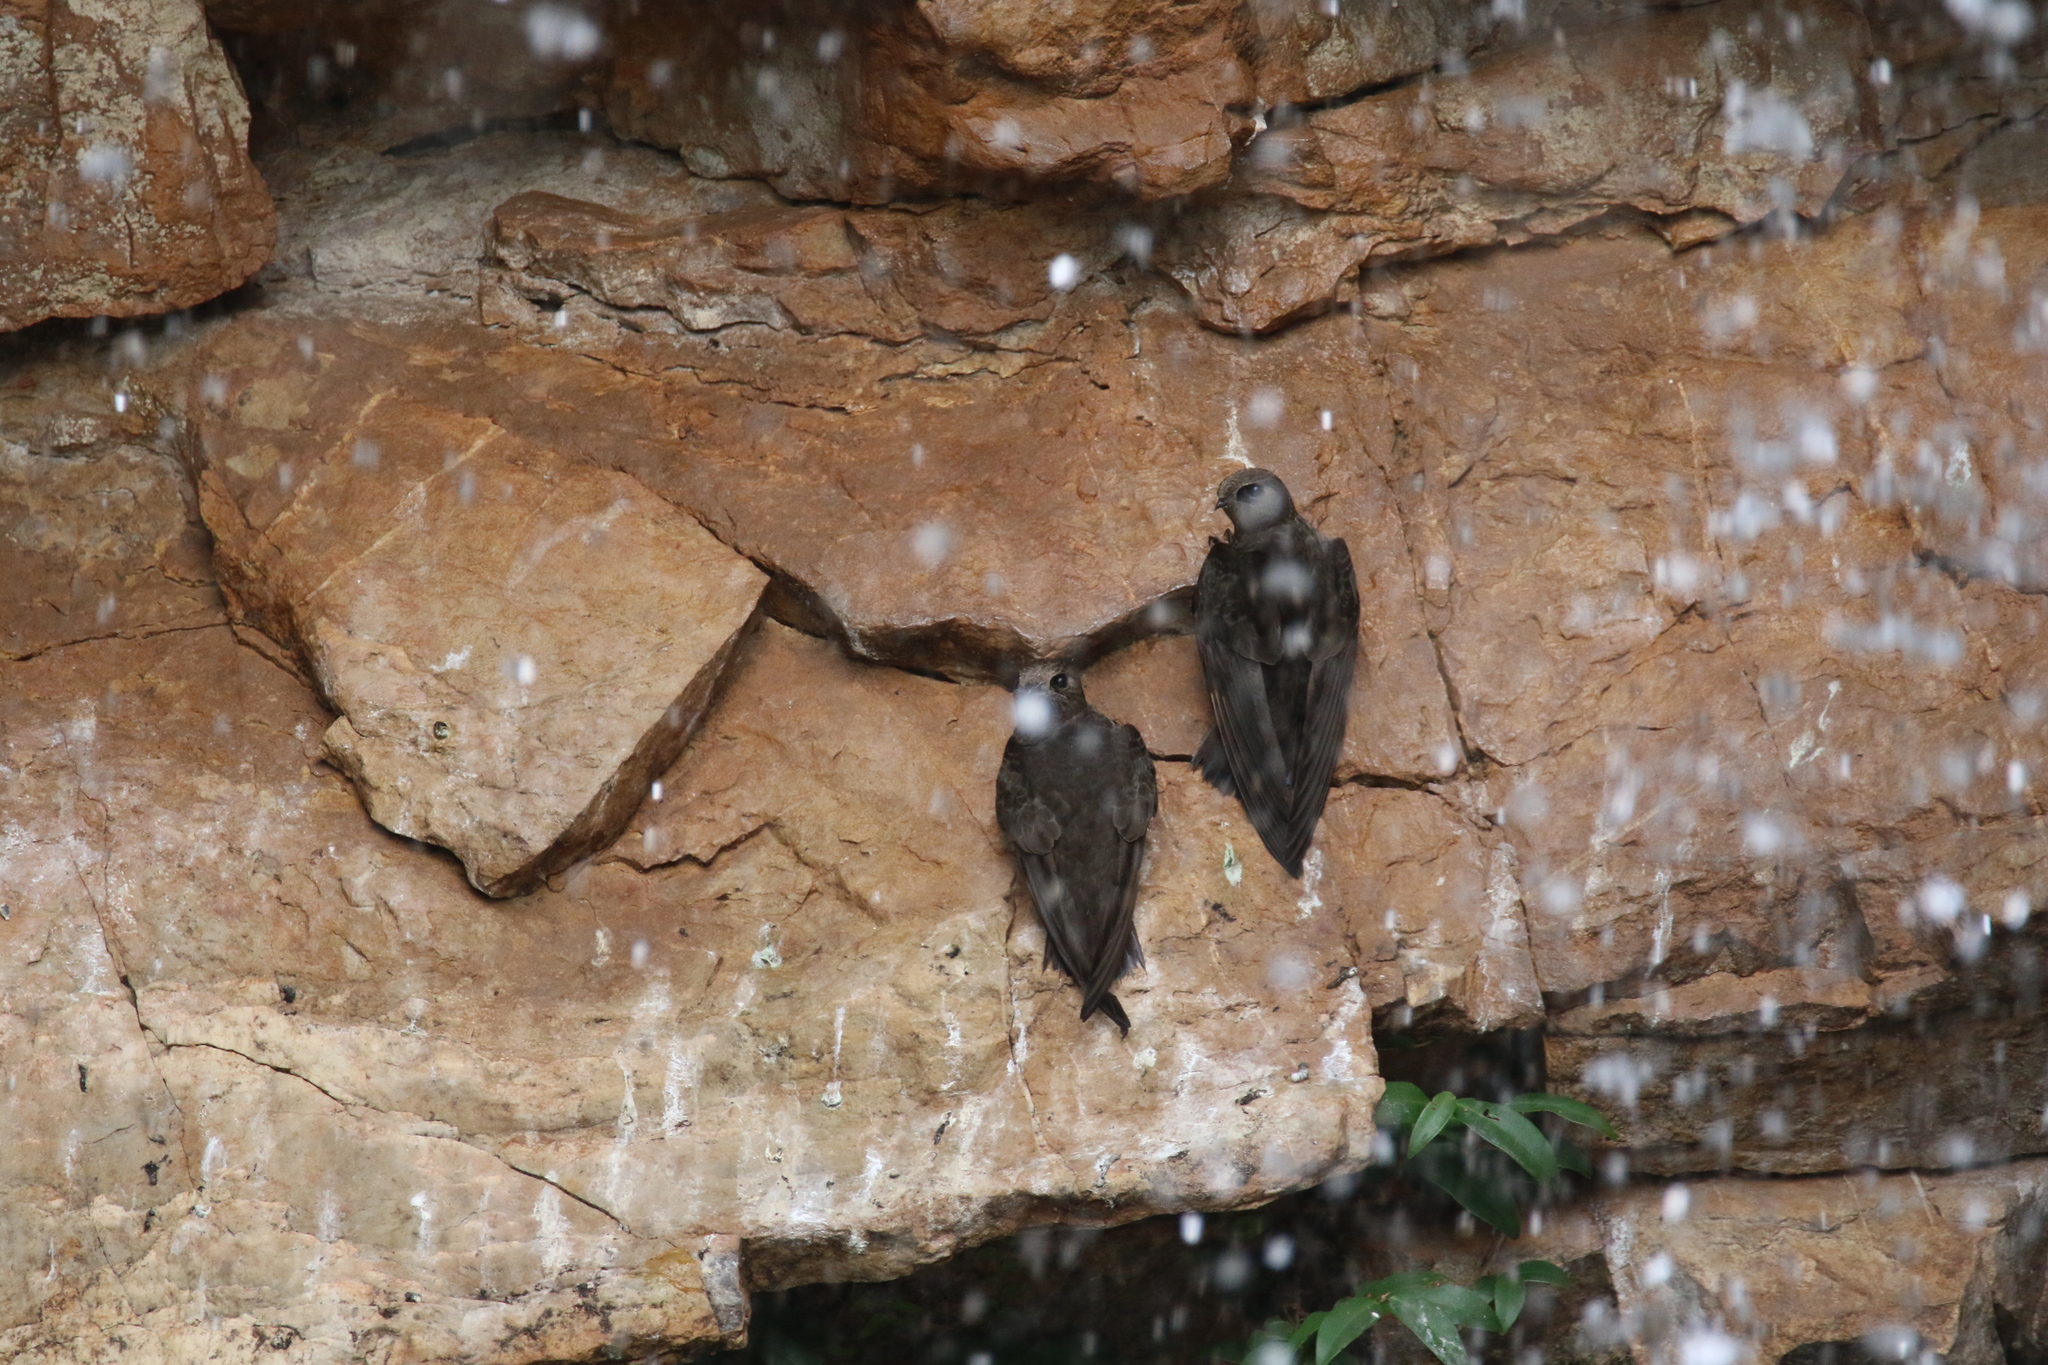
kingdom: Animalia
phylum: Chordata
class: Aves
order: Apodiformes
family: Apodidae
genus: Cypseloides
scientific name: Cypseloides senex
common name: Great dusky swift
